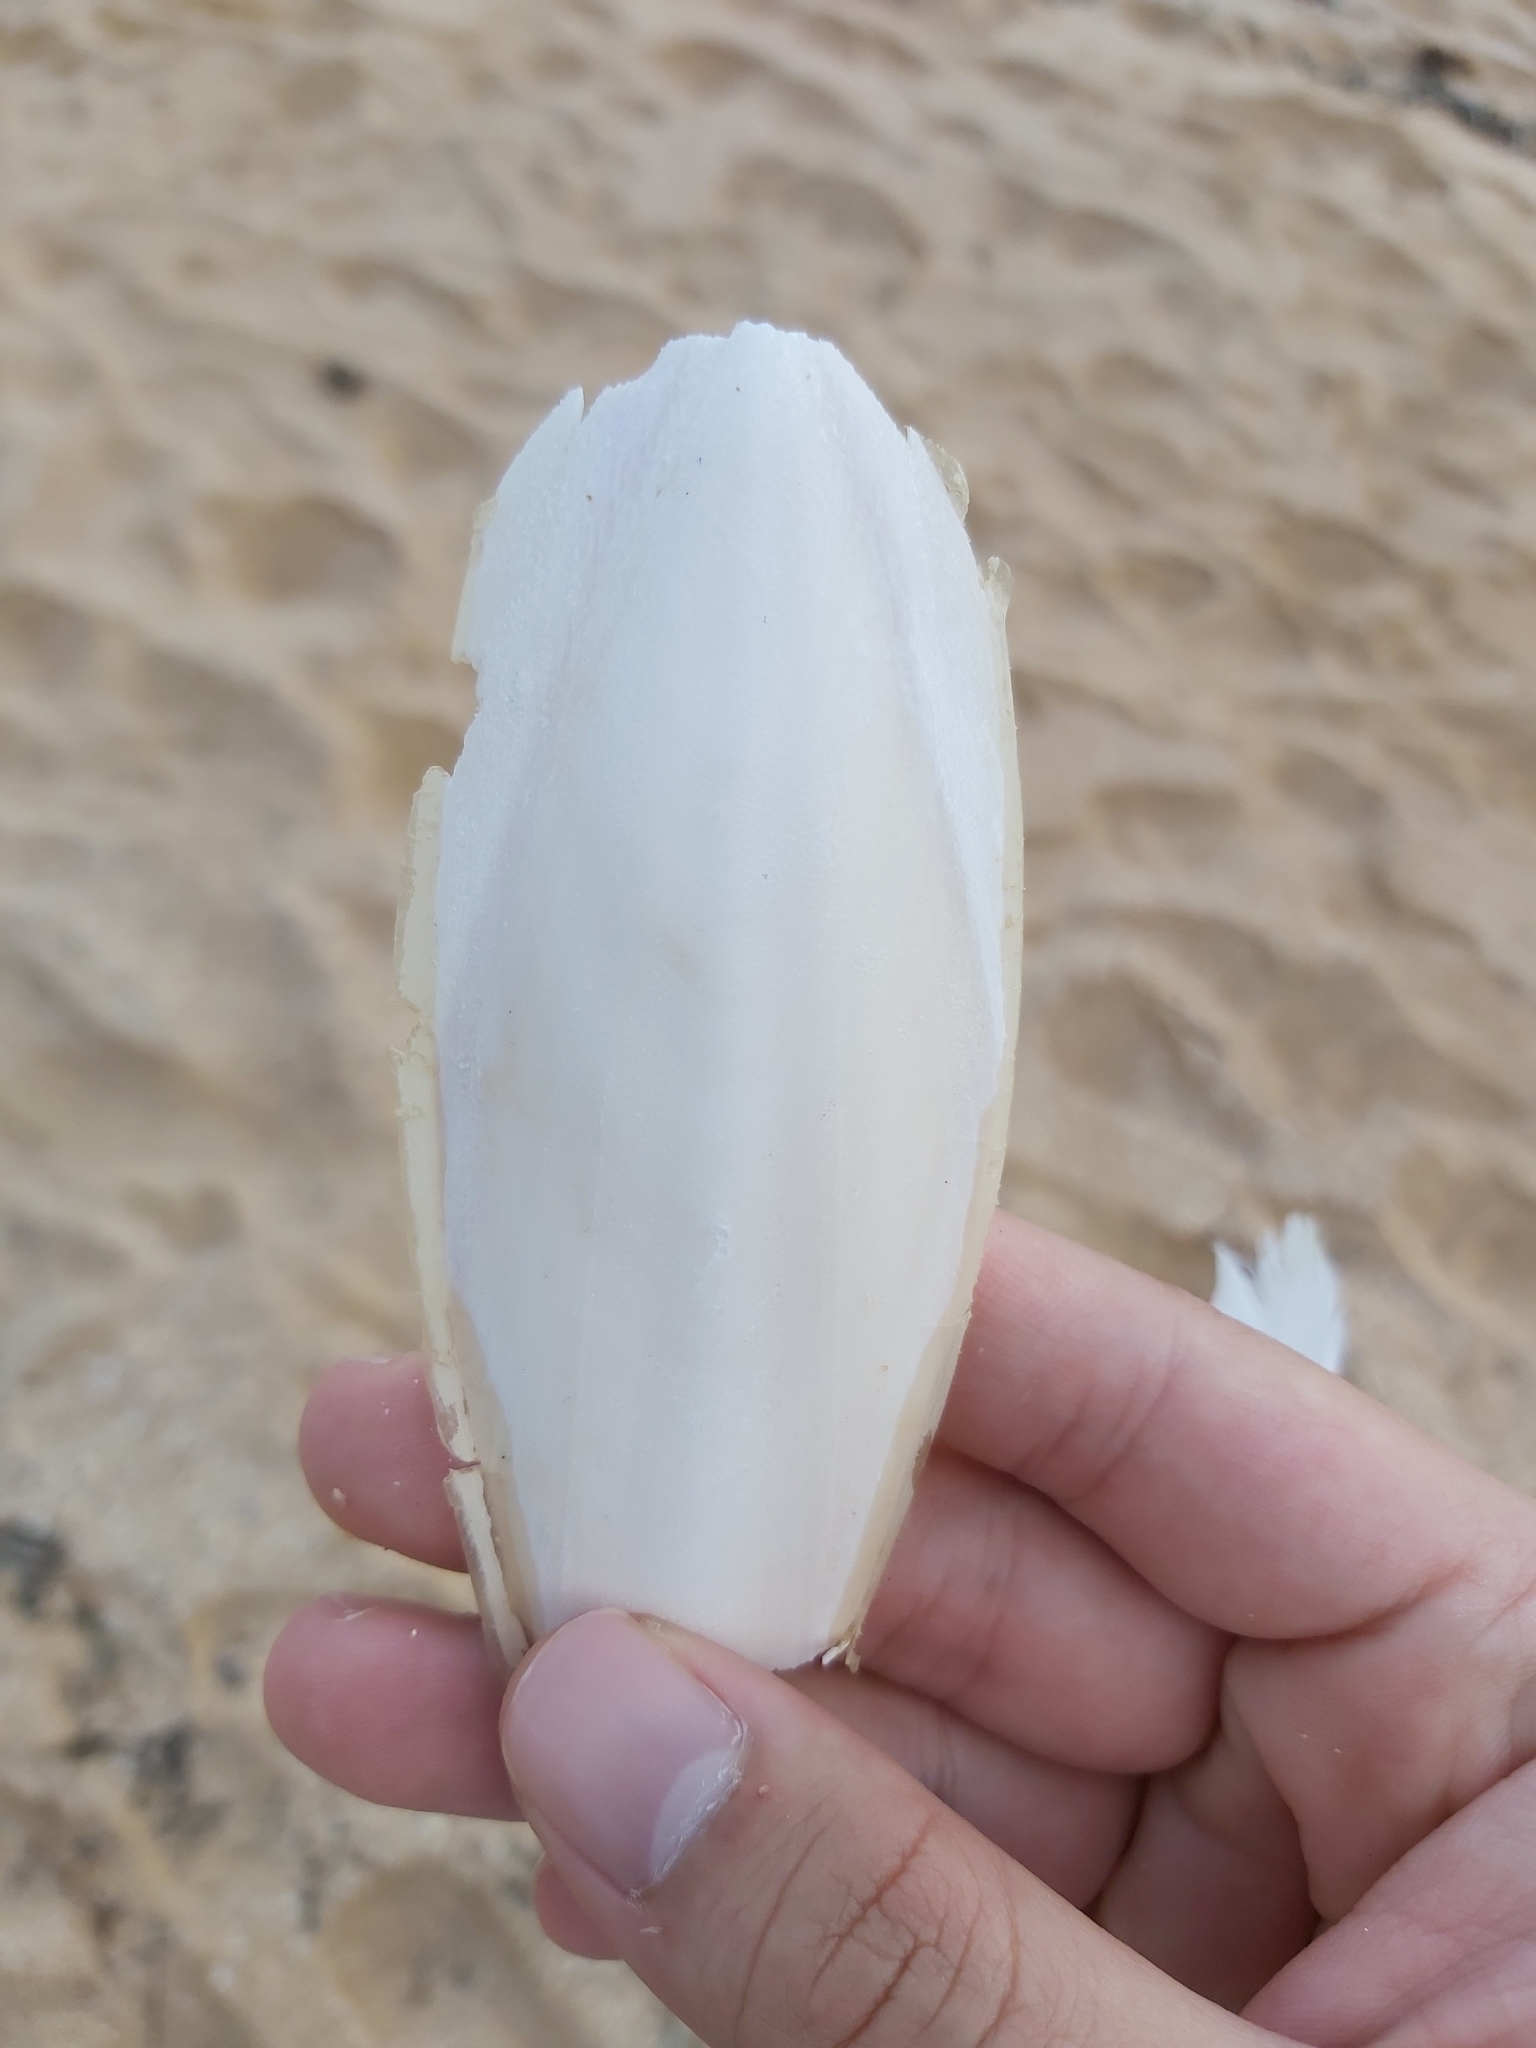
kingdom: Animalia
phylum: Mollusca
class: Cephalopoda
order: Sepiida
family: Sepiidae
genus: Ascarosepion
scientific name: Ascarosepion plangon
